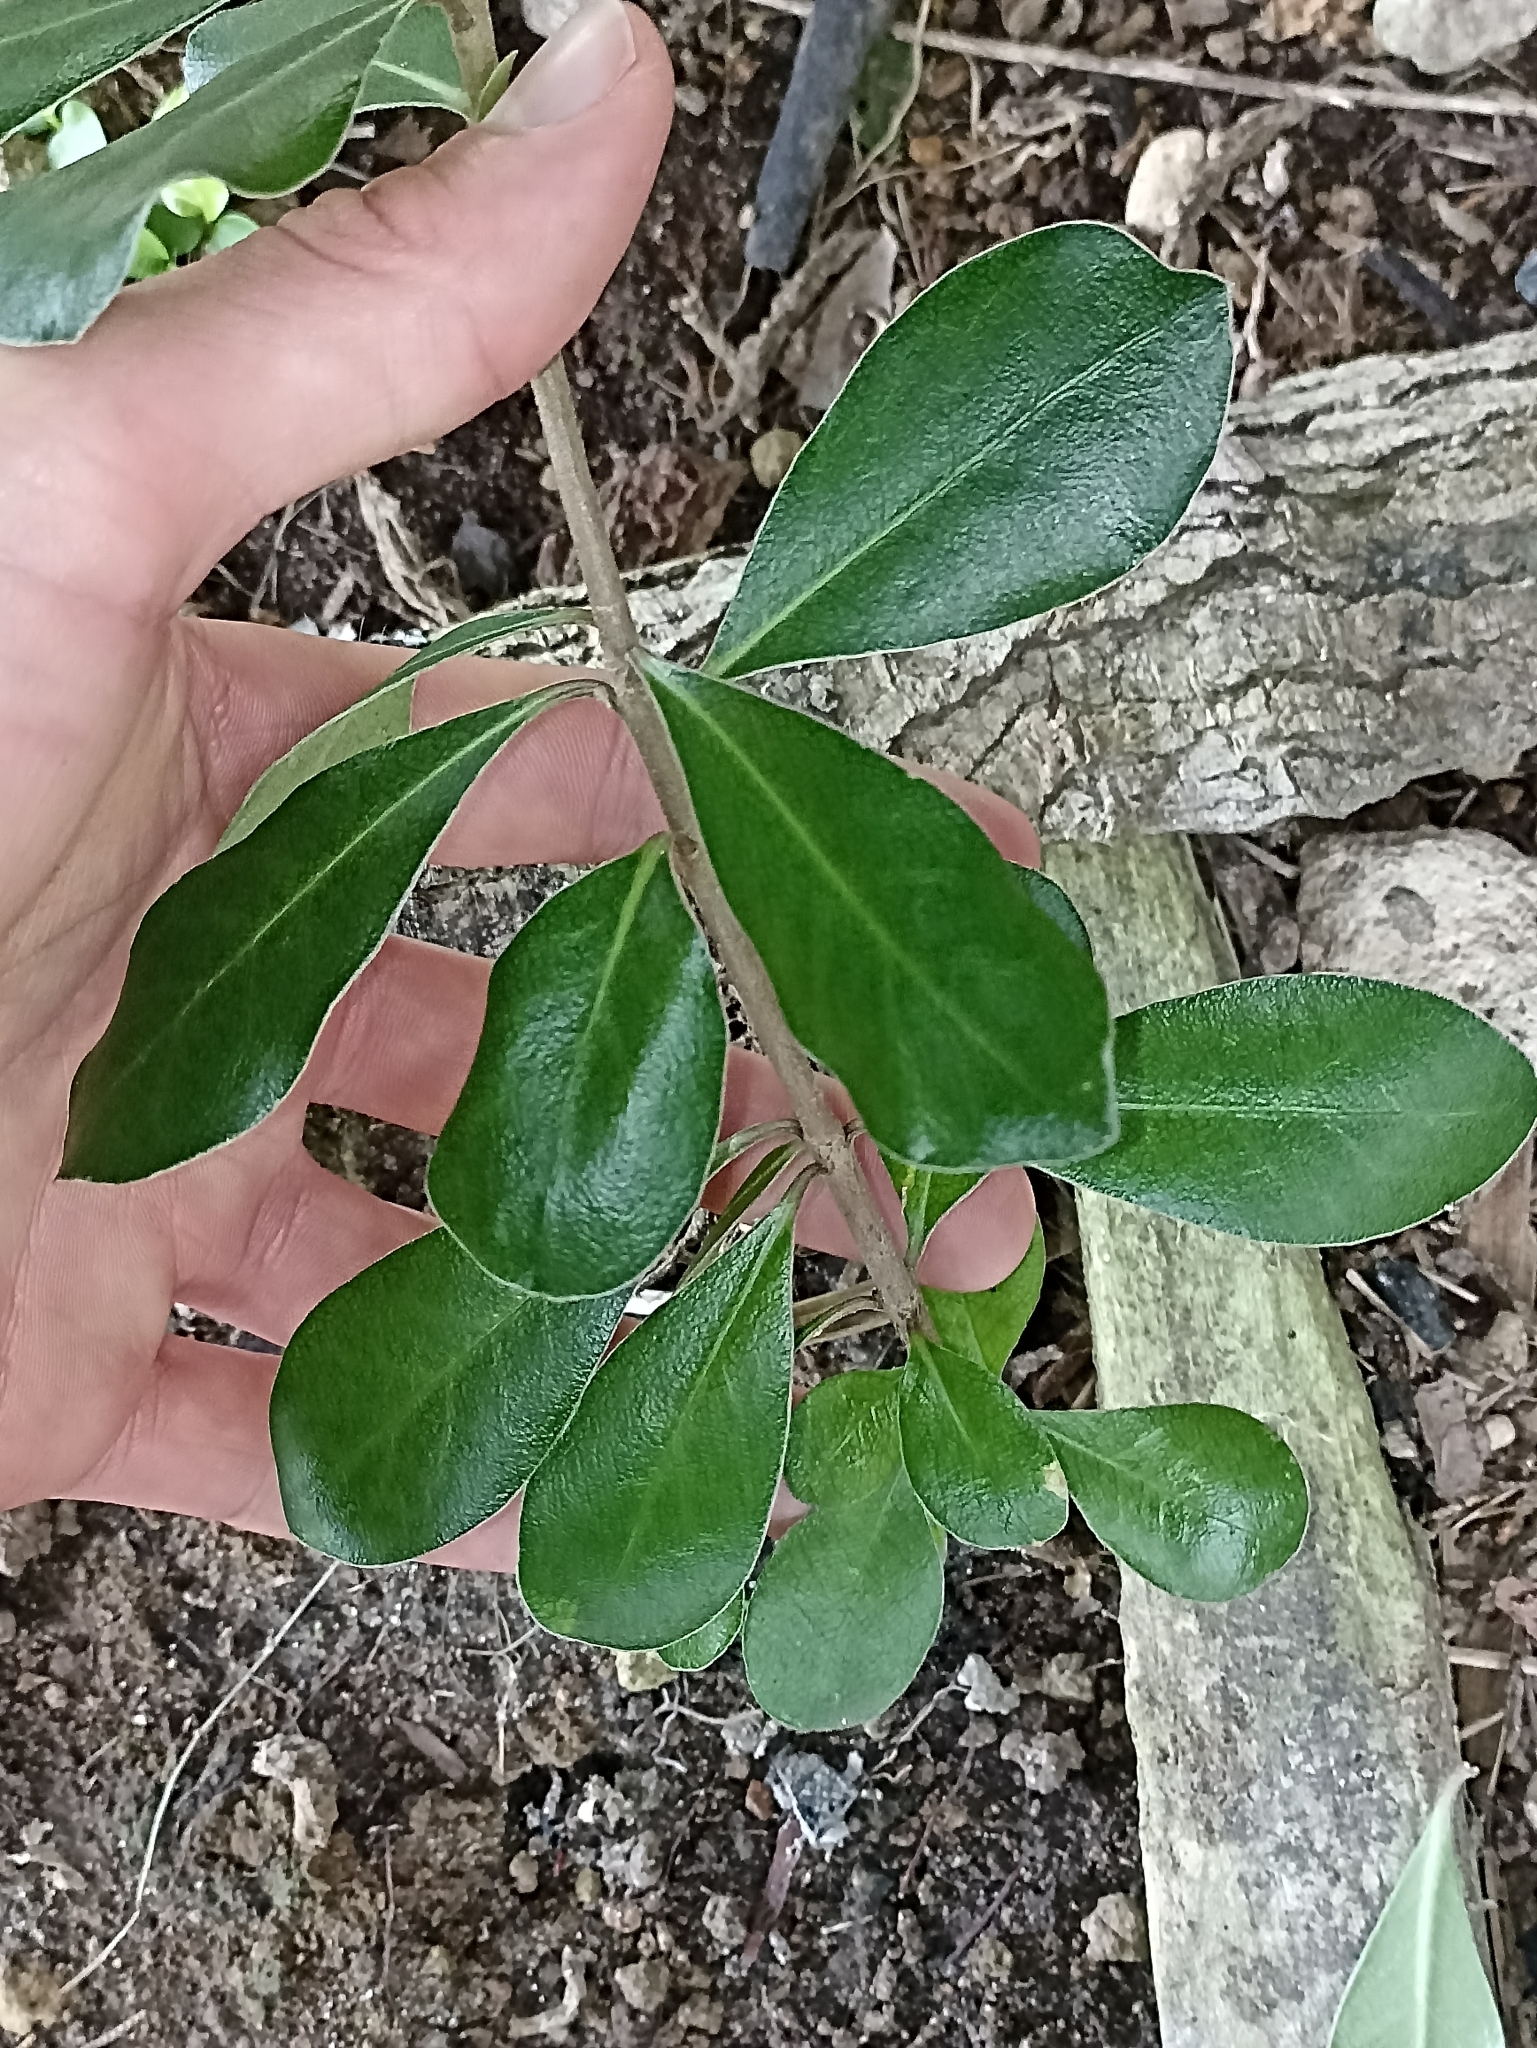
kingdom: Plantae
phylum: Tracheophyta
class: Magnoliopsida
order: Apiales
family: Pittosporaceae
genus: Pittosporum
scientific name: Pittosporum crassifolium
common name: Karo
